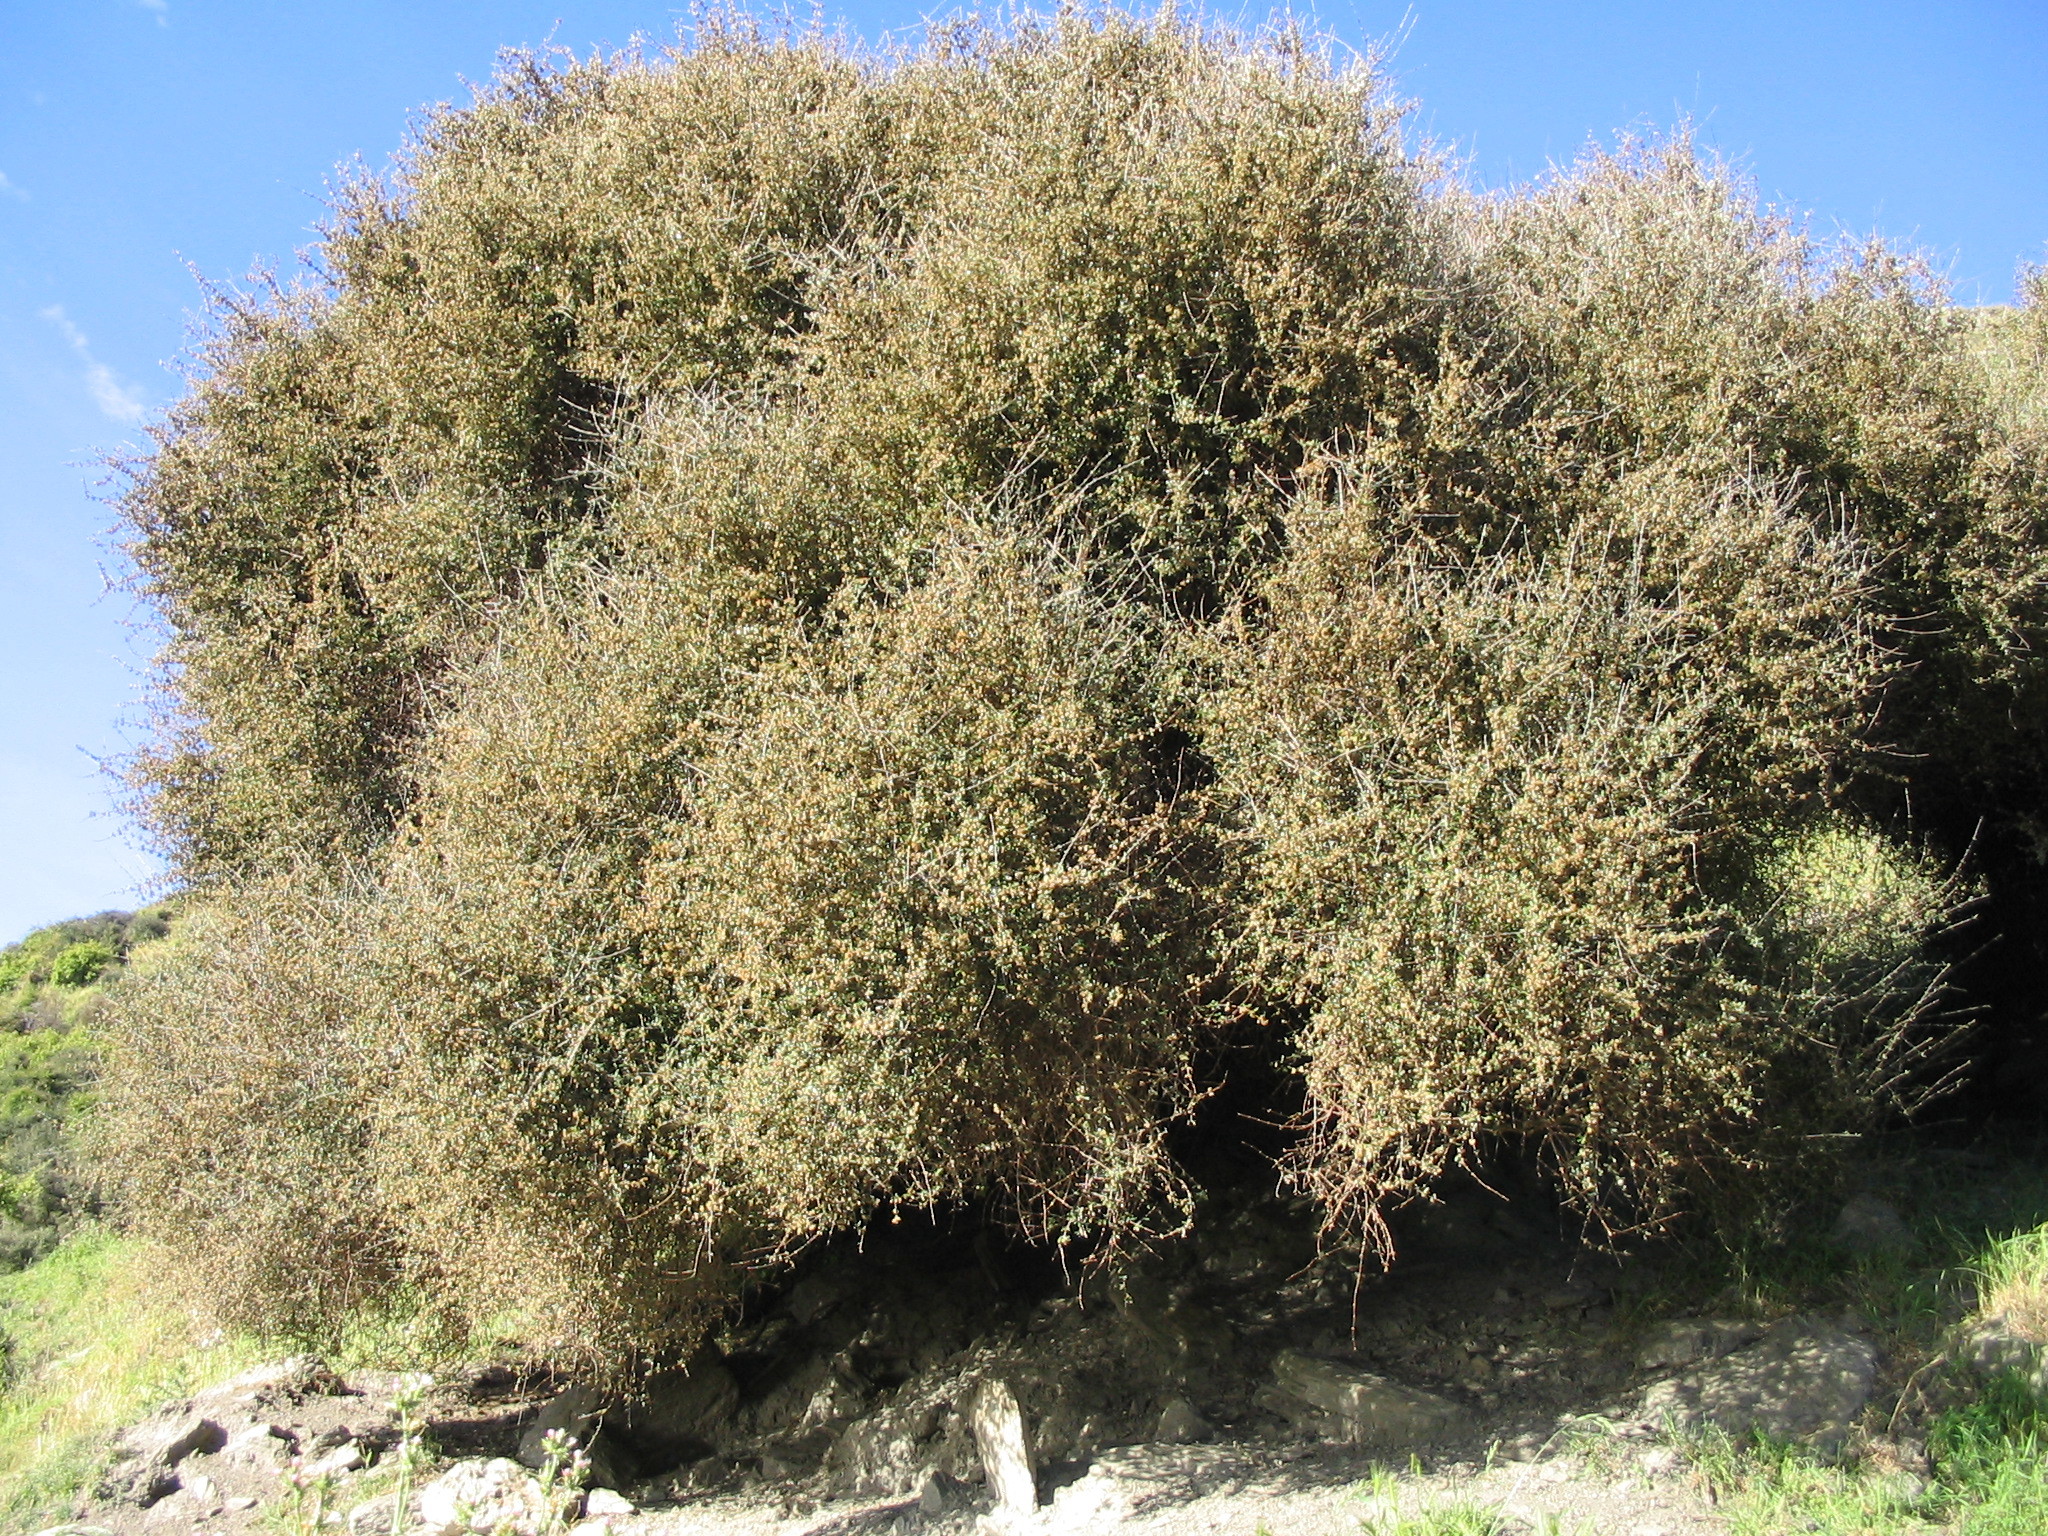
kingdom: Plantae
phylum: Tracheophyta
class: Magnoliopsida
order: Asterales
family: Asteraceae
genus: Olearia
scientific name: Olearia fimbriata
